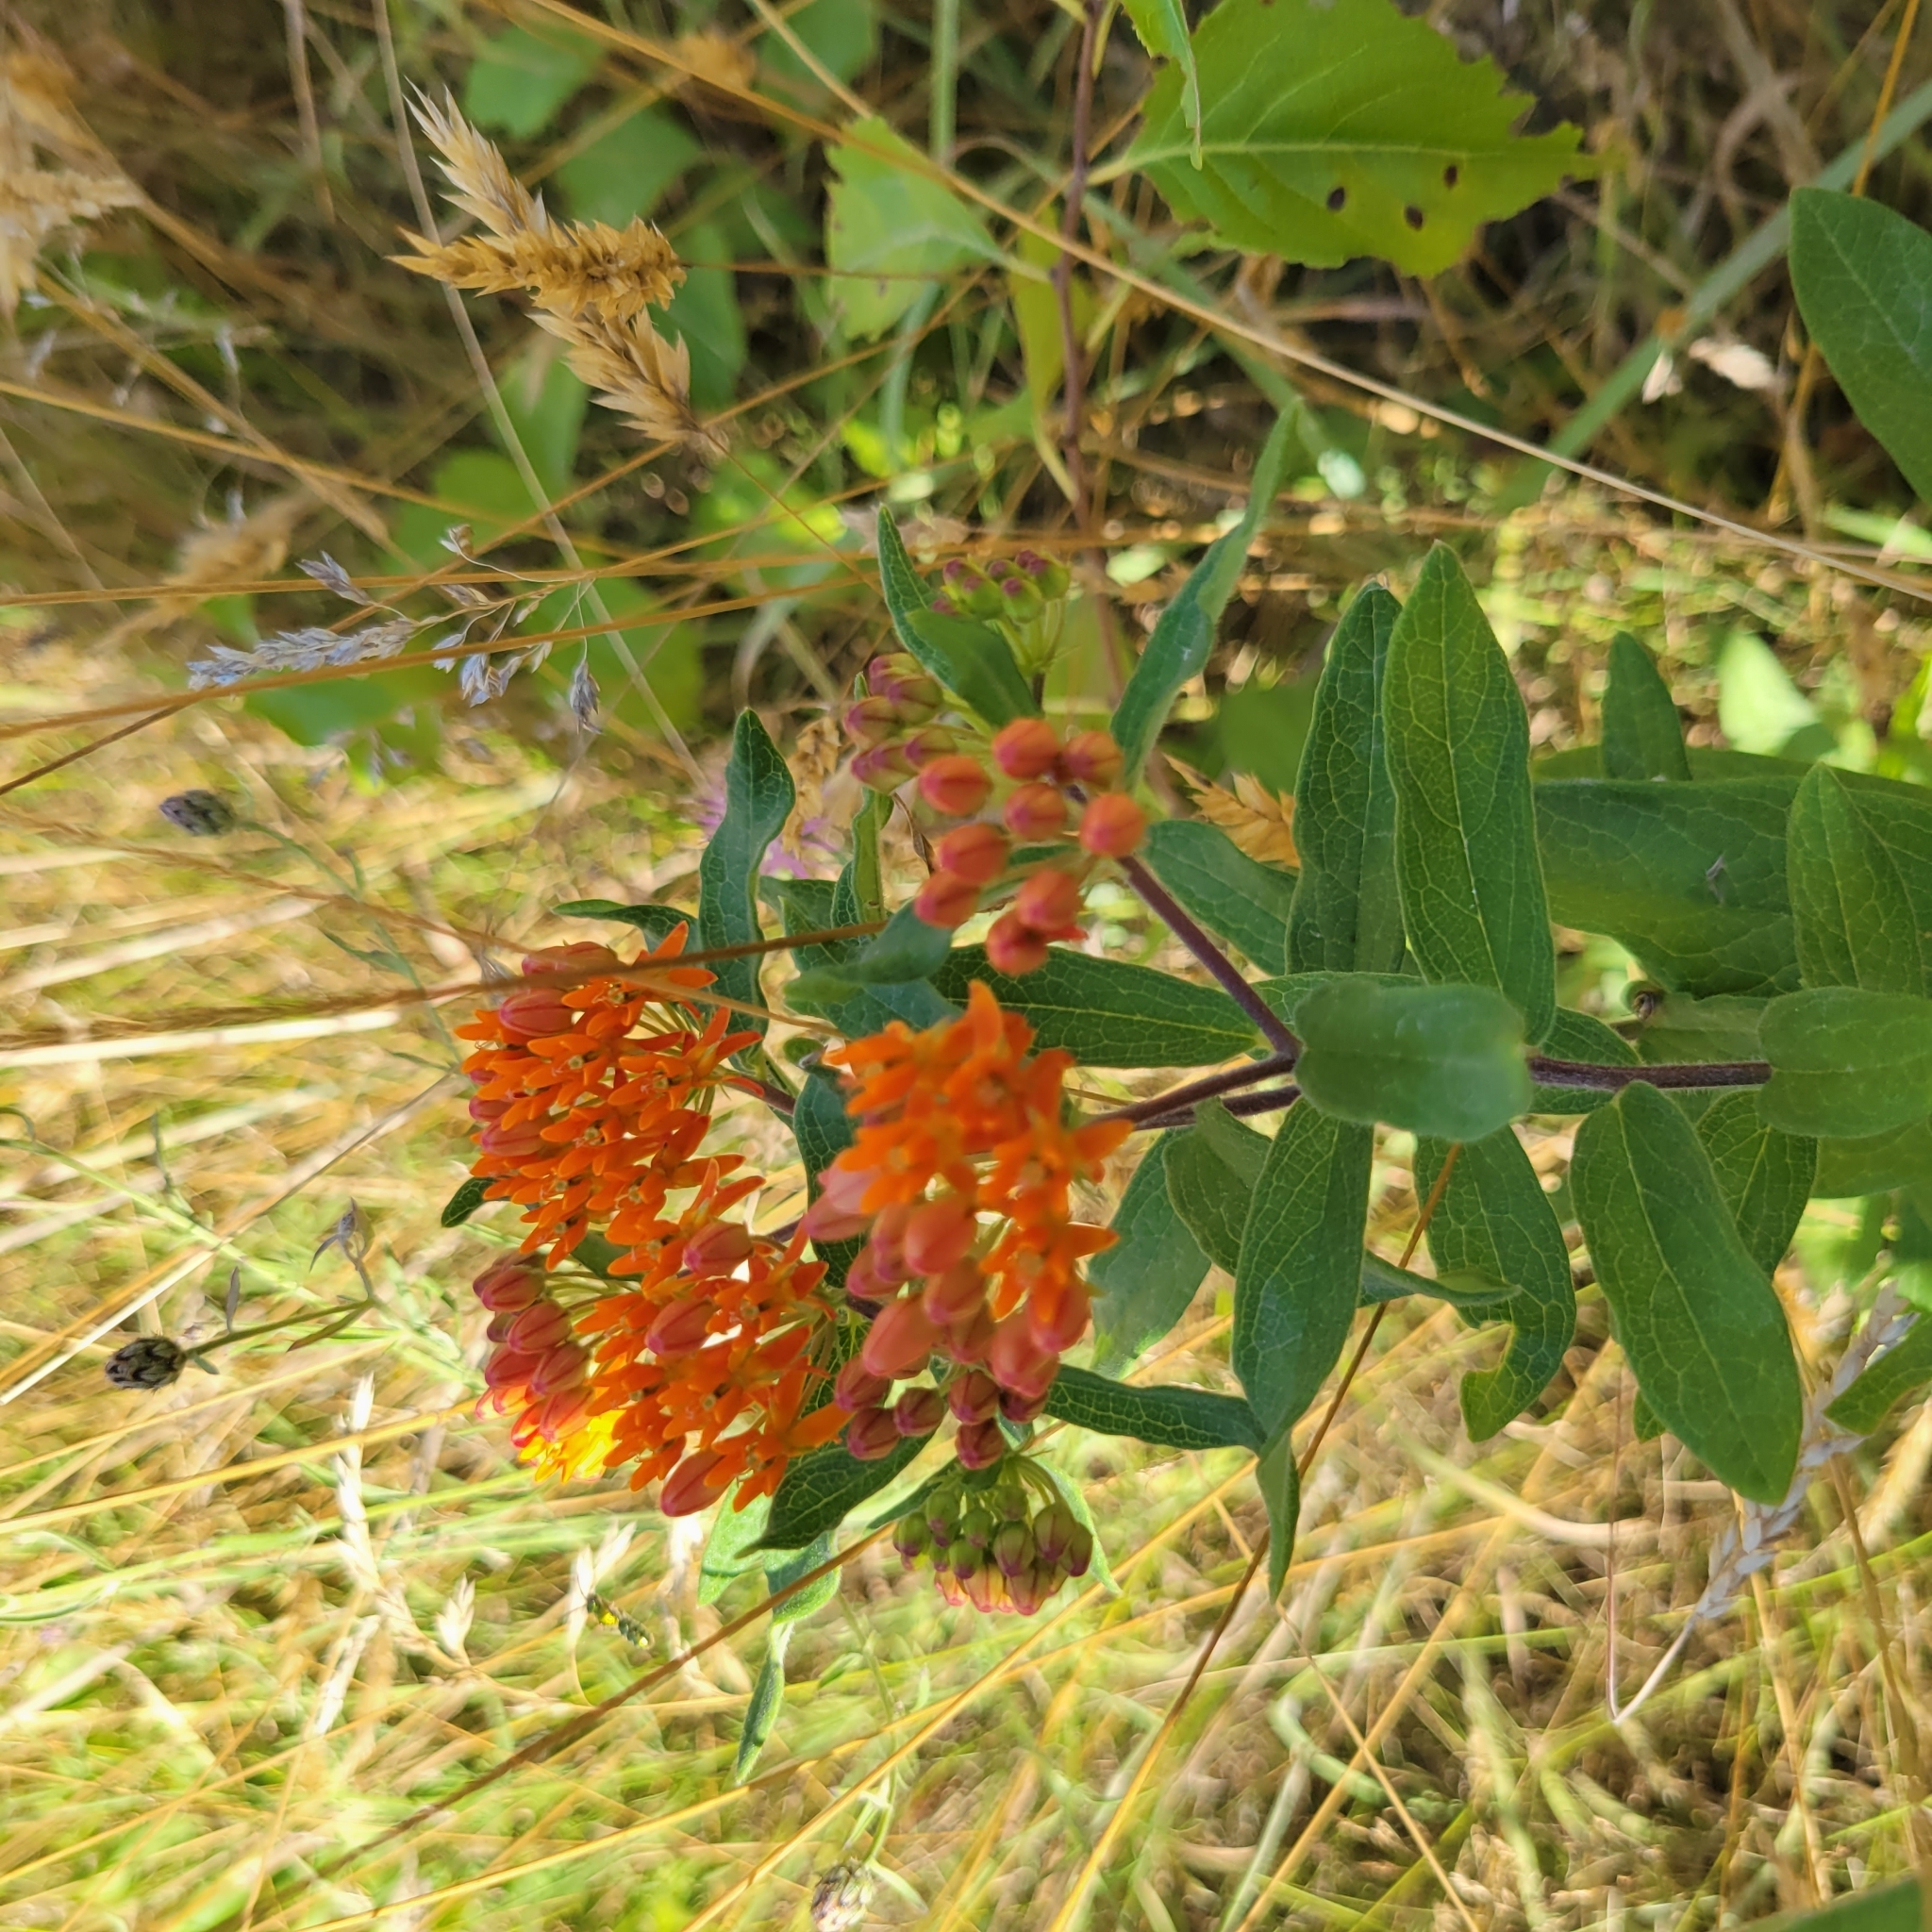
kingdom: Plantae
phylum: Tracheophyta
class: Magnoliopsida
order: Gentianales
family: Apocynaceae
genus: Asclepias
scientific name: Asclepias tuberosa
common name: Butterfly milkweed
